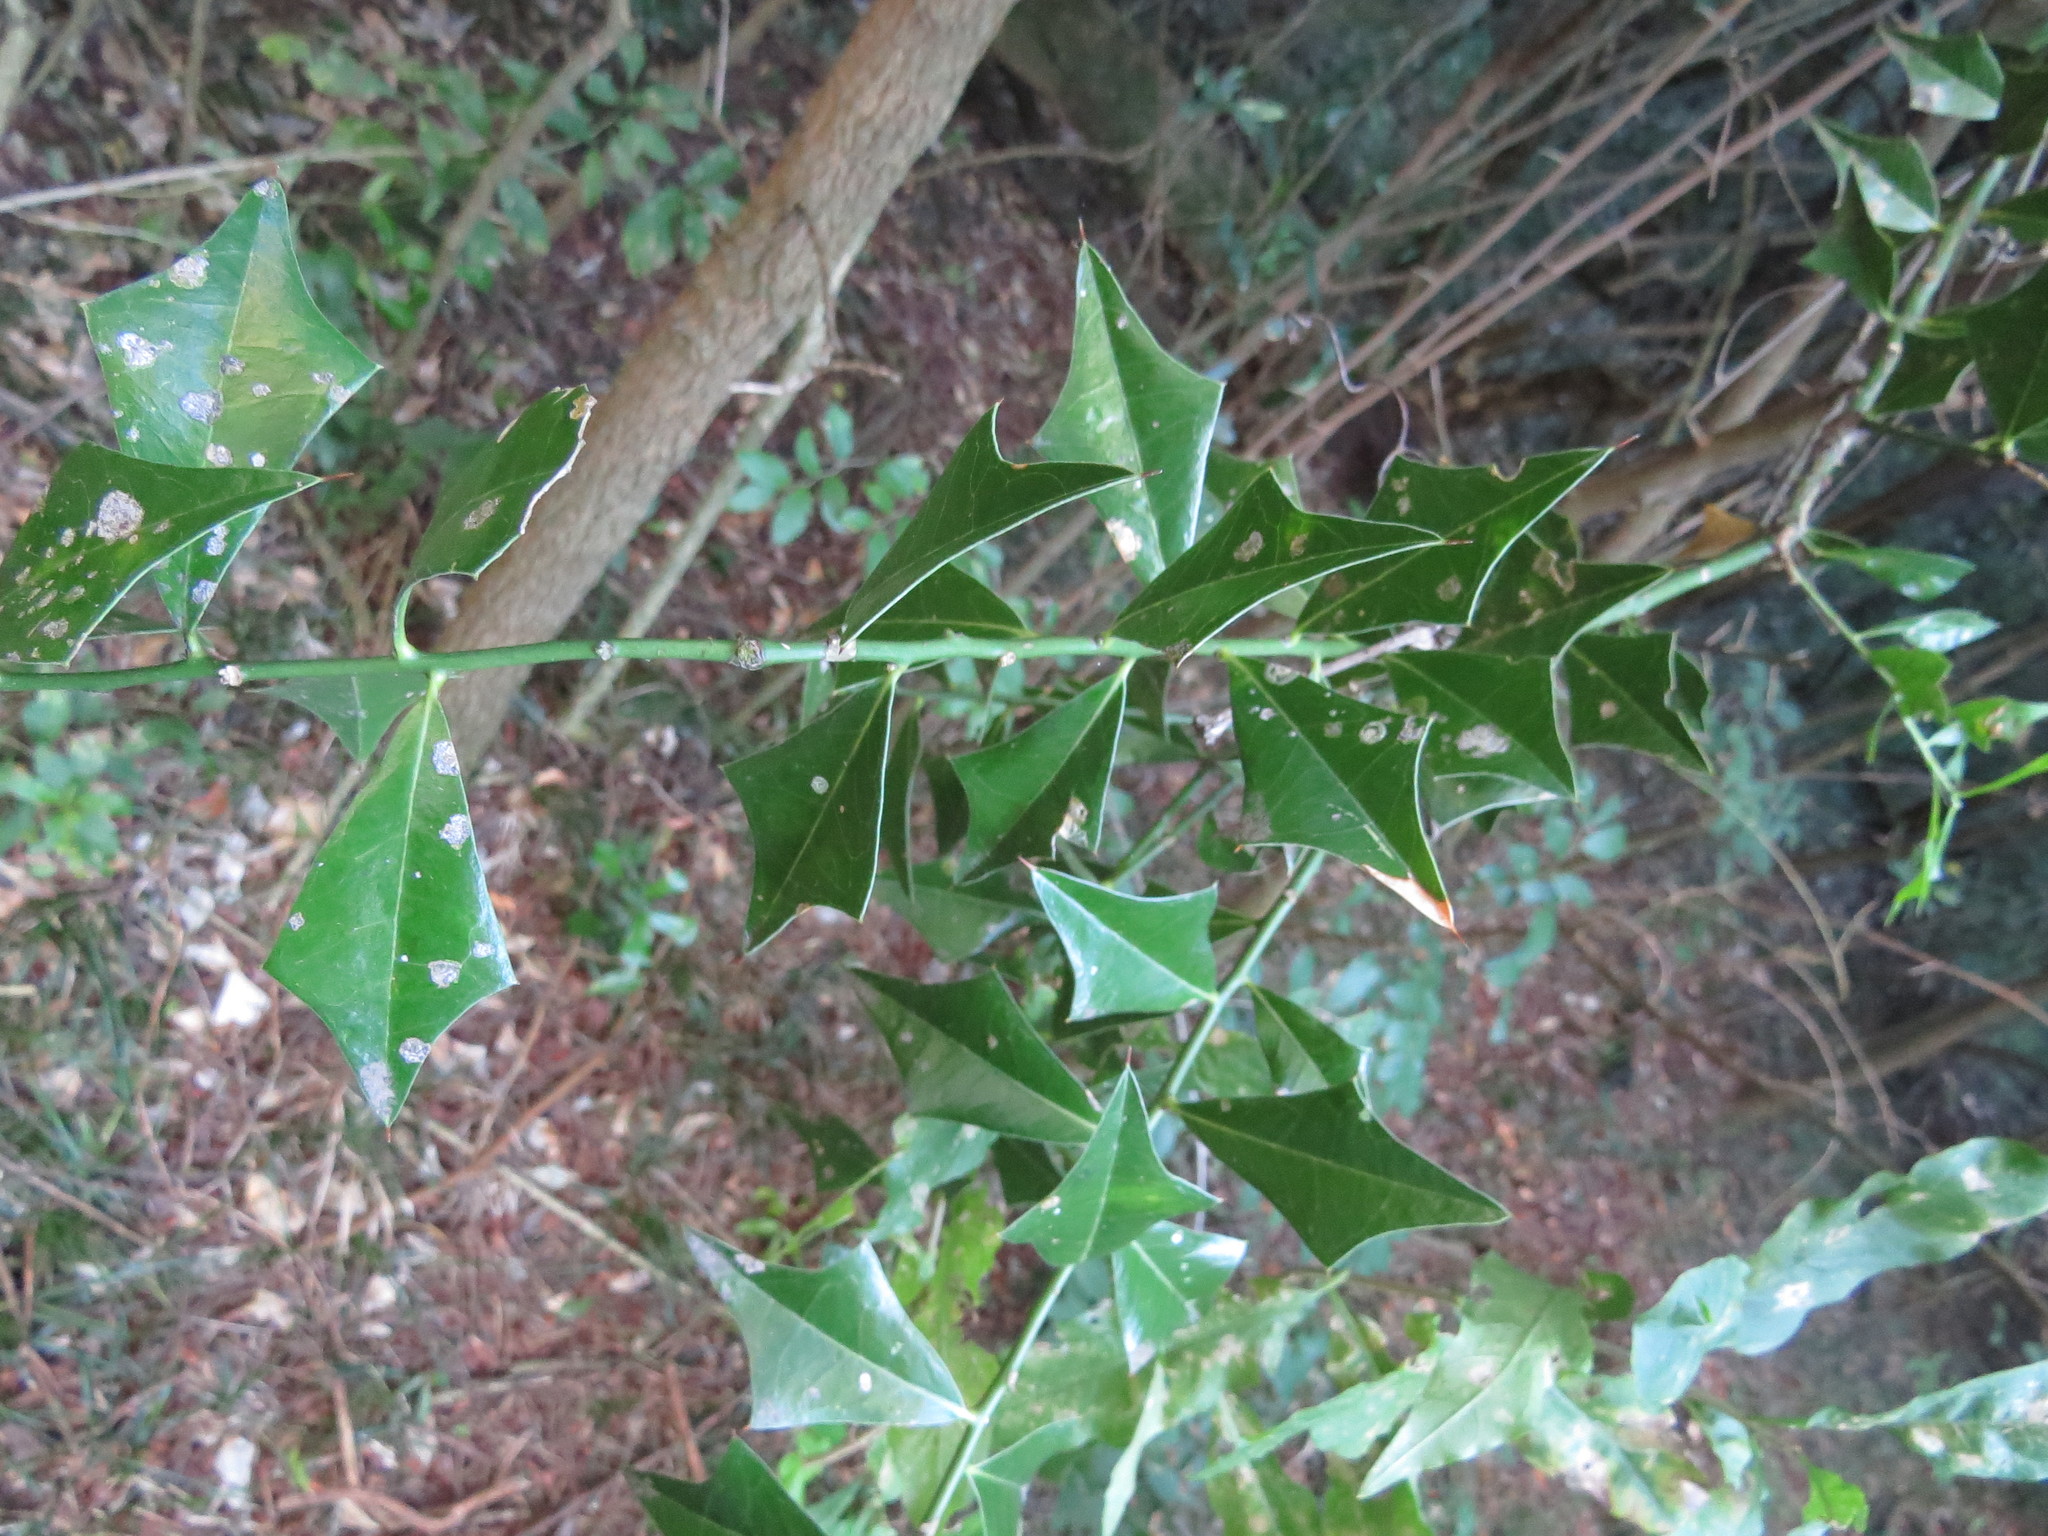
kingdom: Plantae
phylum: Tracheophyta
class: Magnoliopsida
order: Santalales
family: Cervantesiaceae
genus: Jodina
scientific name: Jodina rhombifolia
